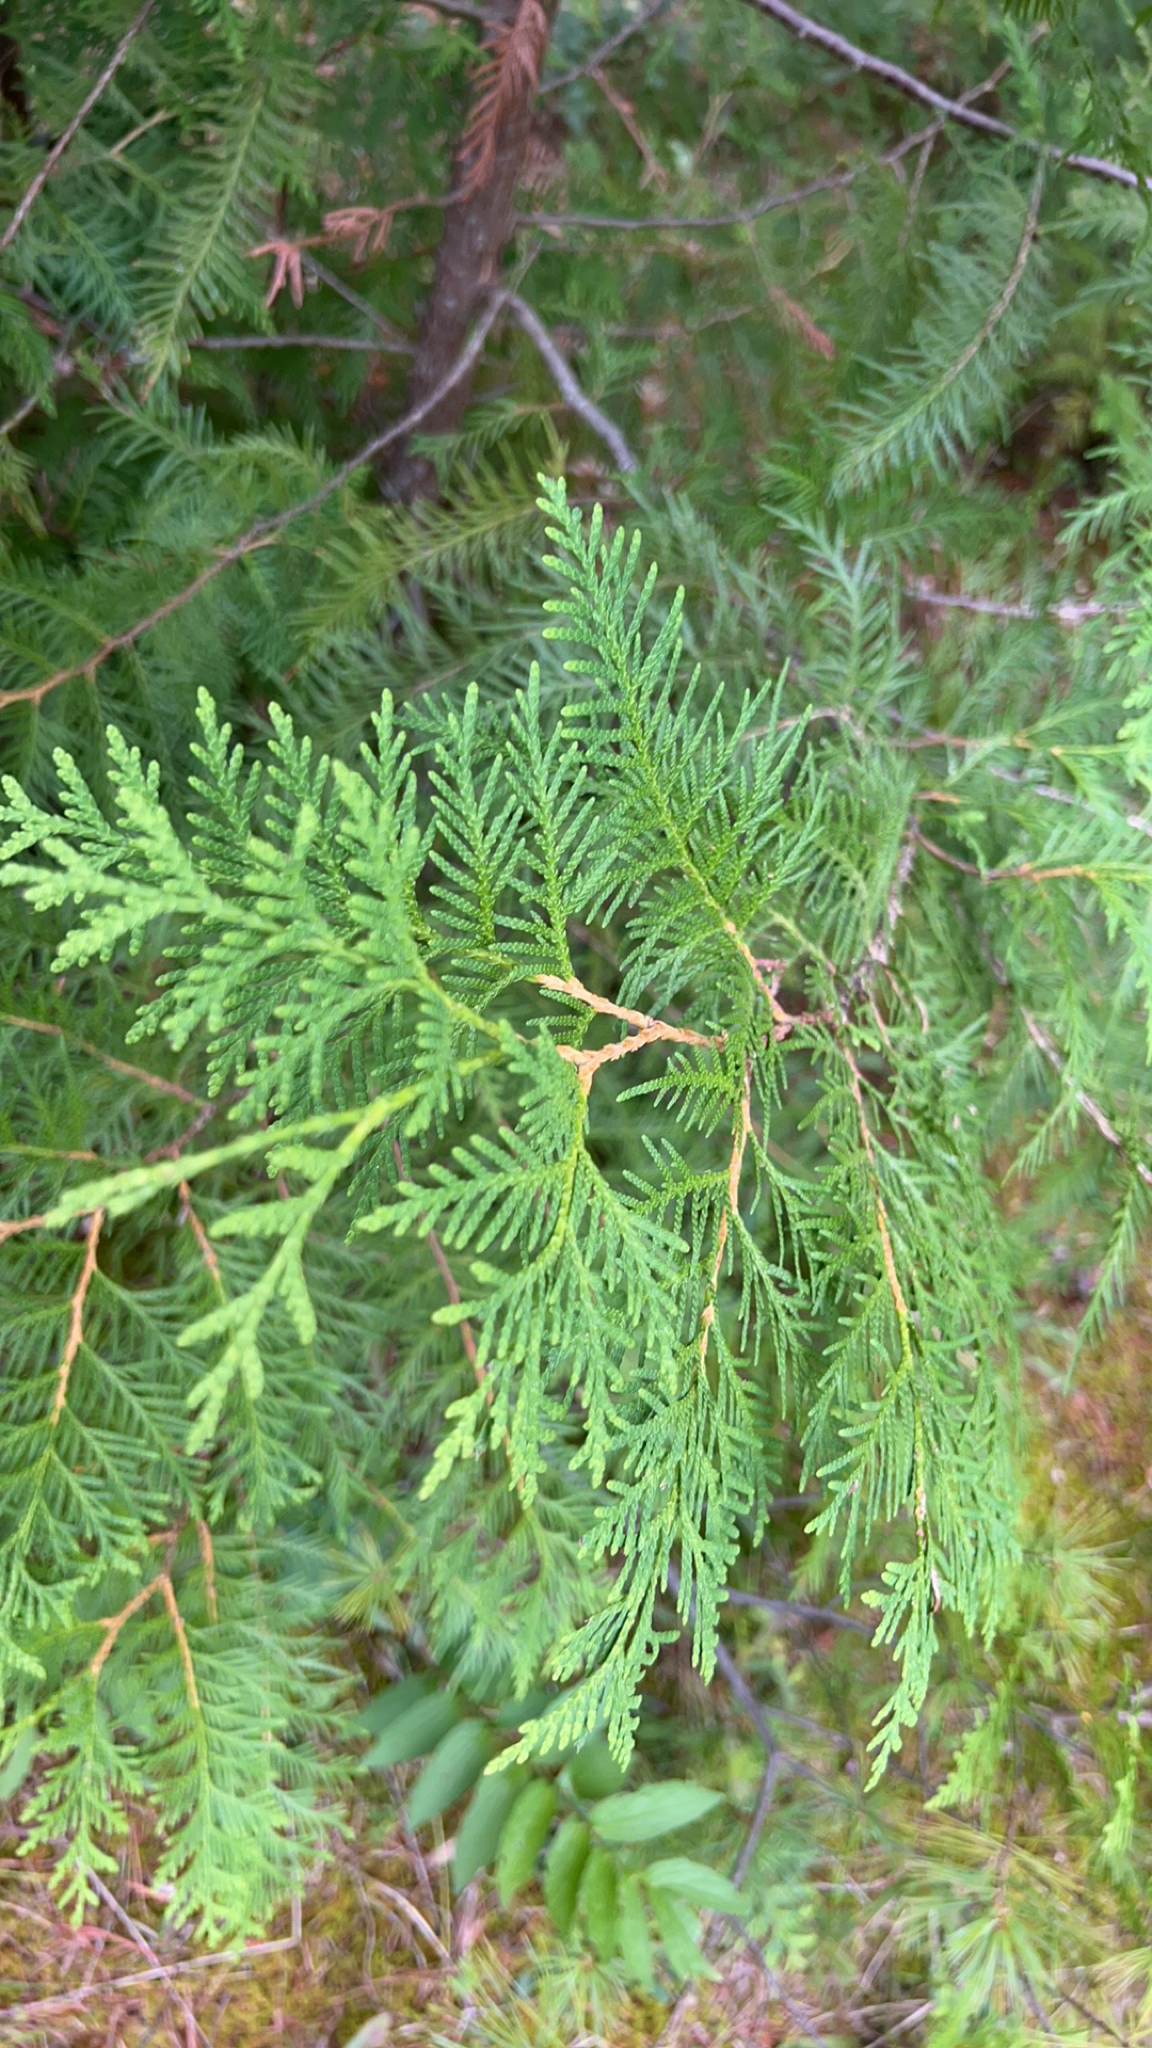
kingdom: Plantae
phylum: Tracheophyta
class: Pinopsida
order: Pinales
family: Cupressaceae
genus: Thuja
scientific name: Thuja occidentalis
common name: Northern white-cedar
